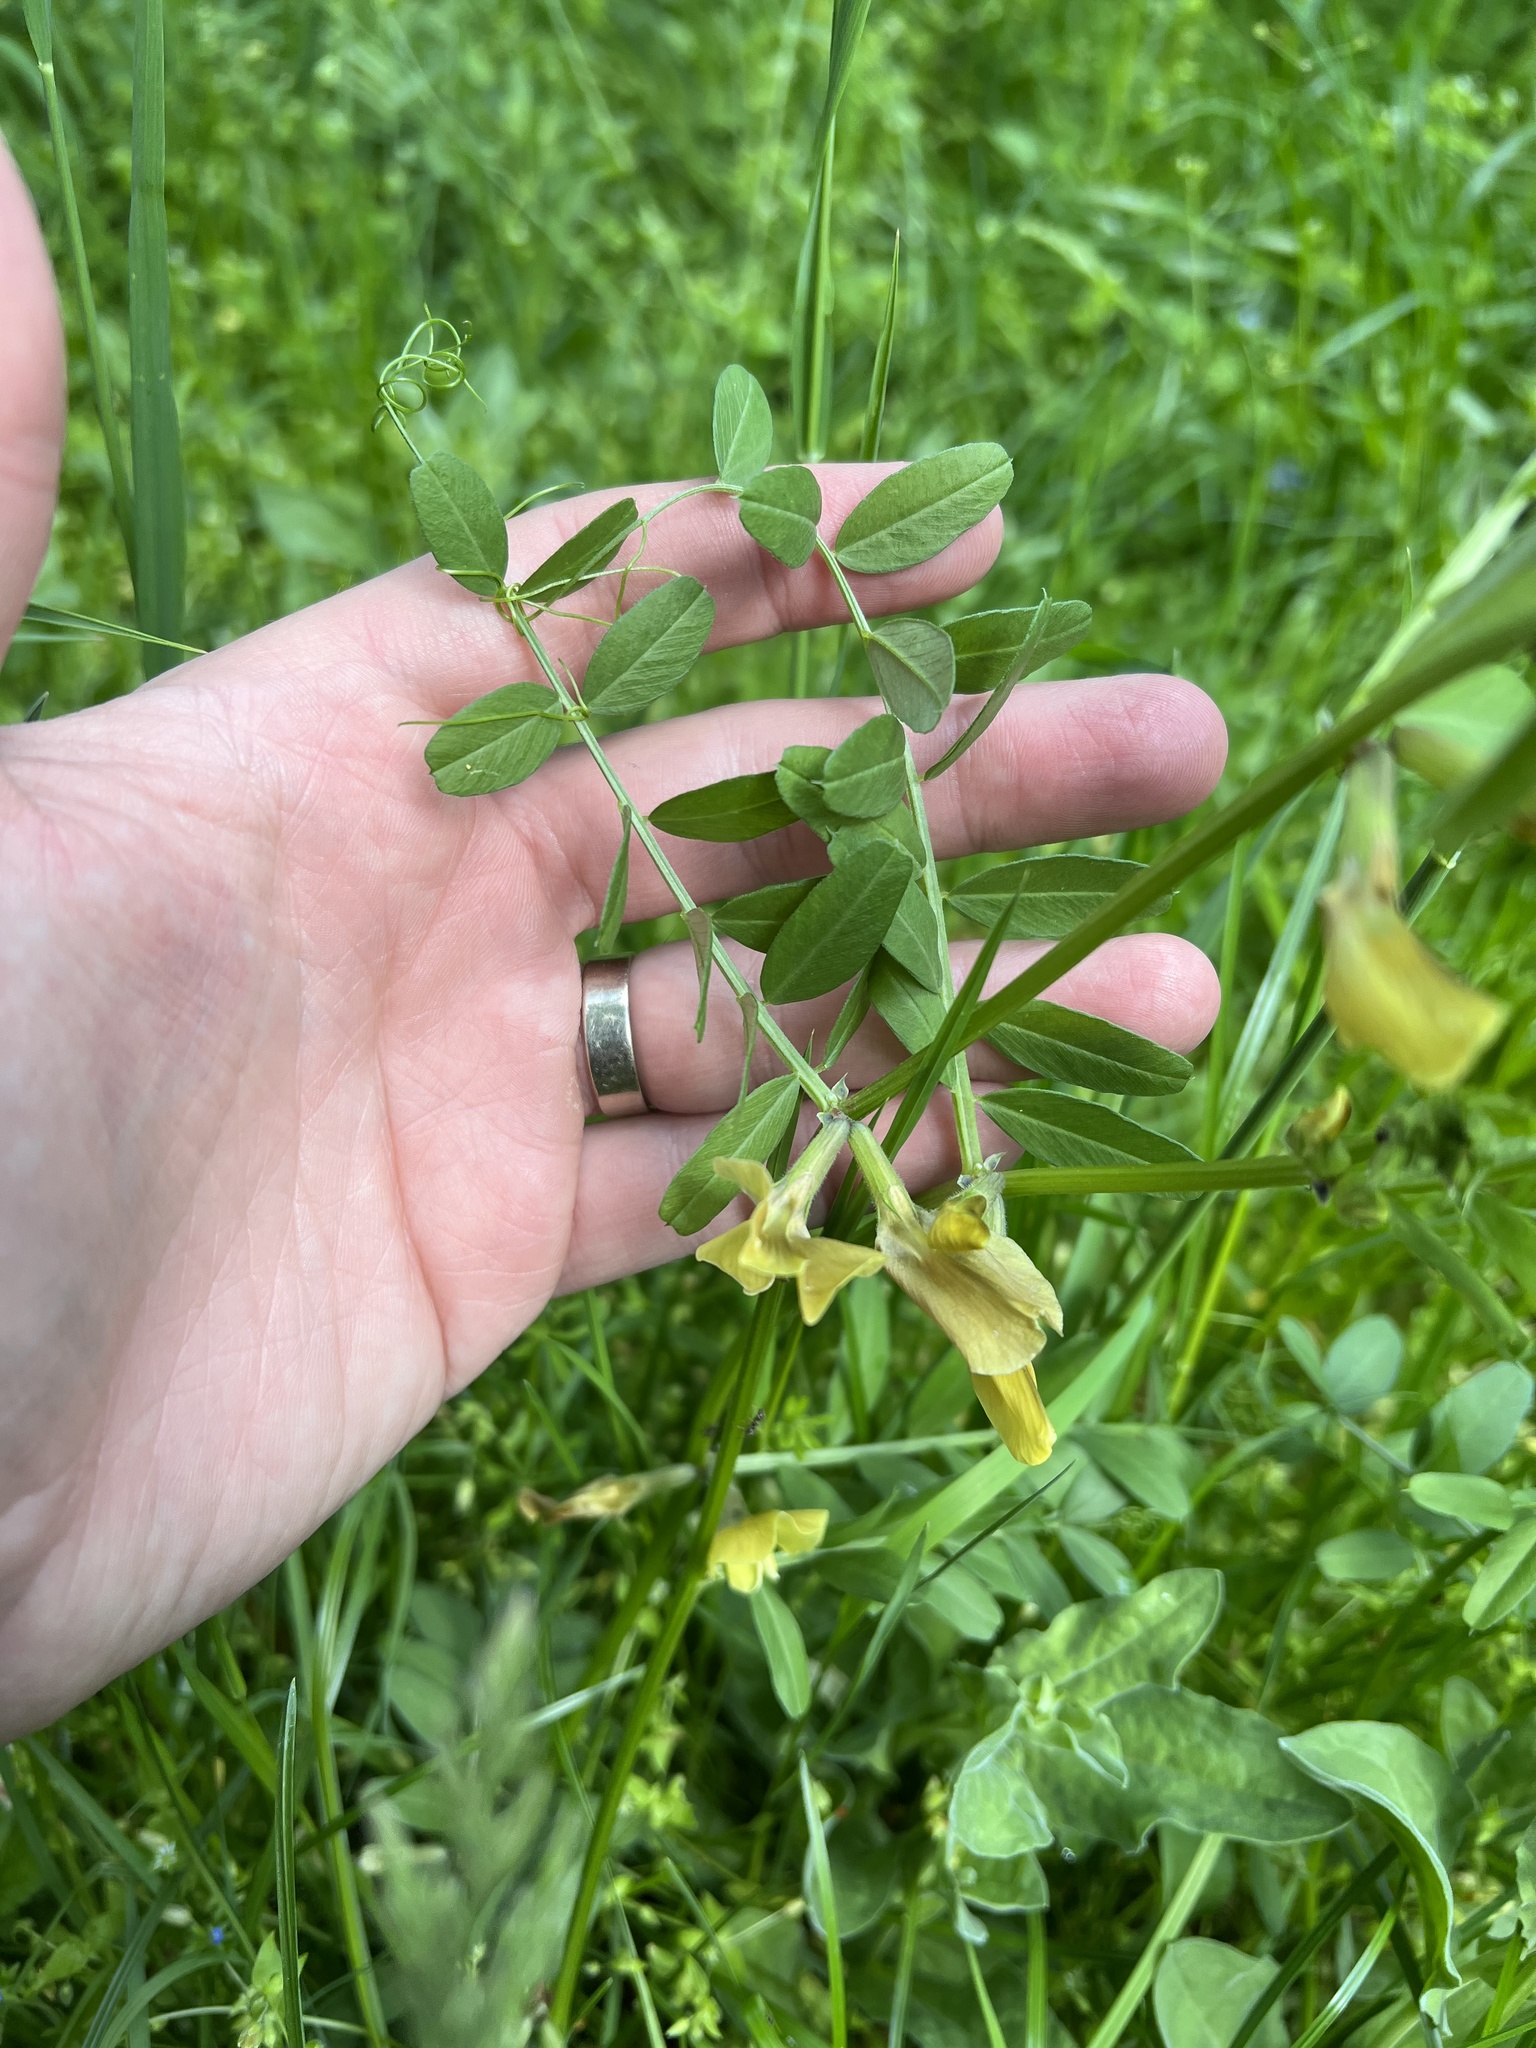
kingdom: Plantae
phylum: Tracheophyta
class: Magnoliopsida
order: Fabales
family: Fabaceae
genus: Vicia
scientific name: Vicia grandiflora
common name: Large yellow vetch
